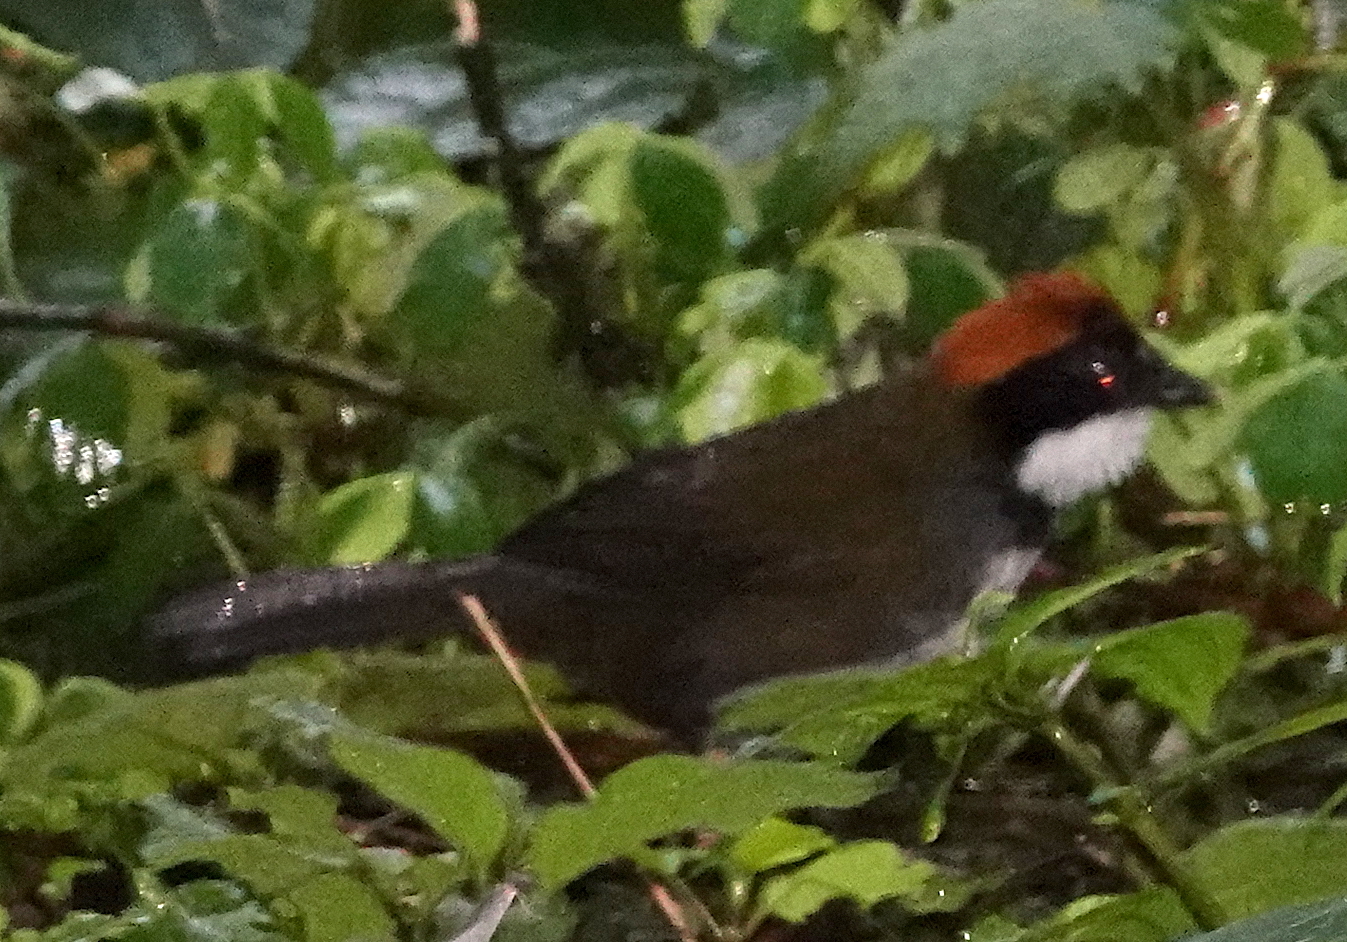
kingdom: Animalia
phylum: Chordata
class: Aves
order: Passeriformes
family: Passerellidae
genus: Arremon
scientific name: Arremon brunneinucha
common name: Chestnut-capped brushfinch
